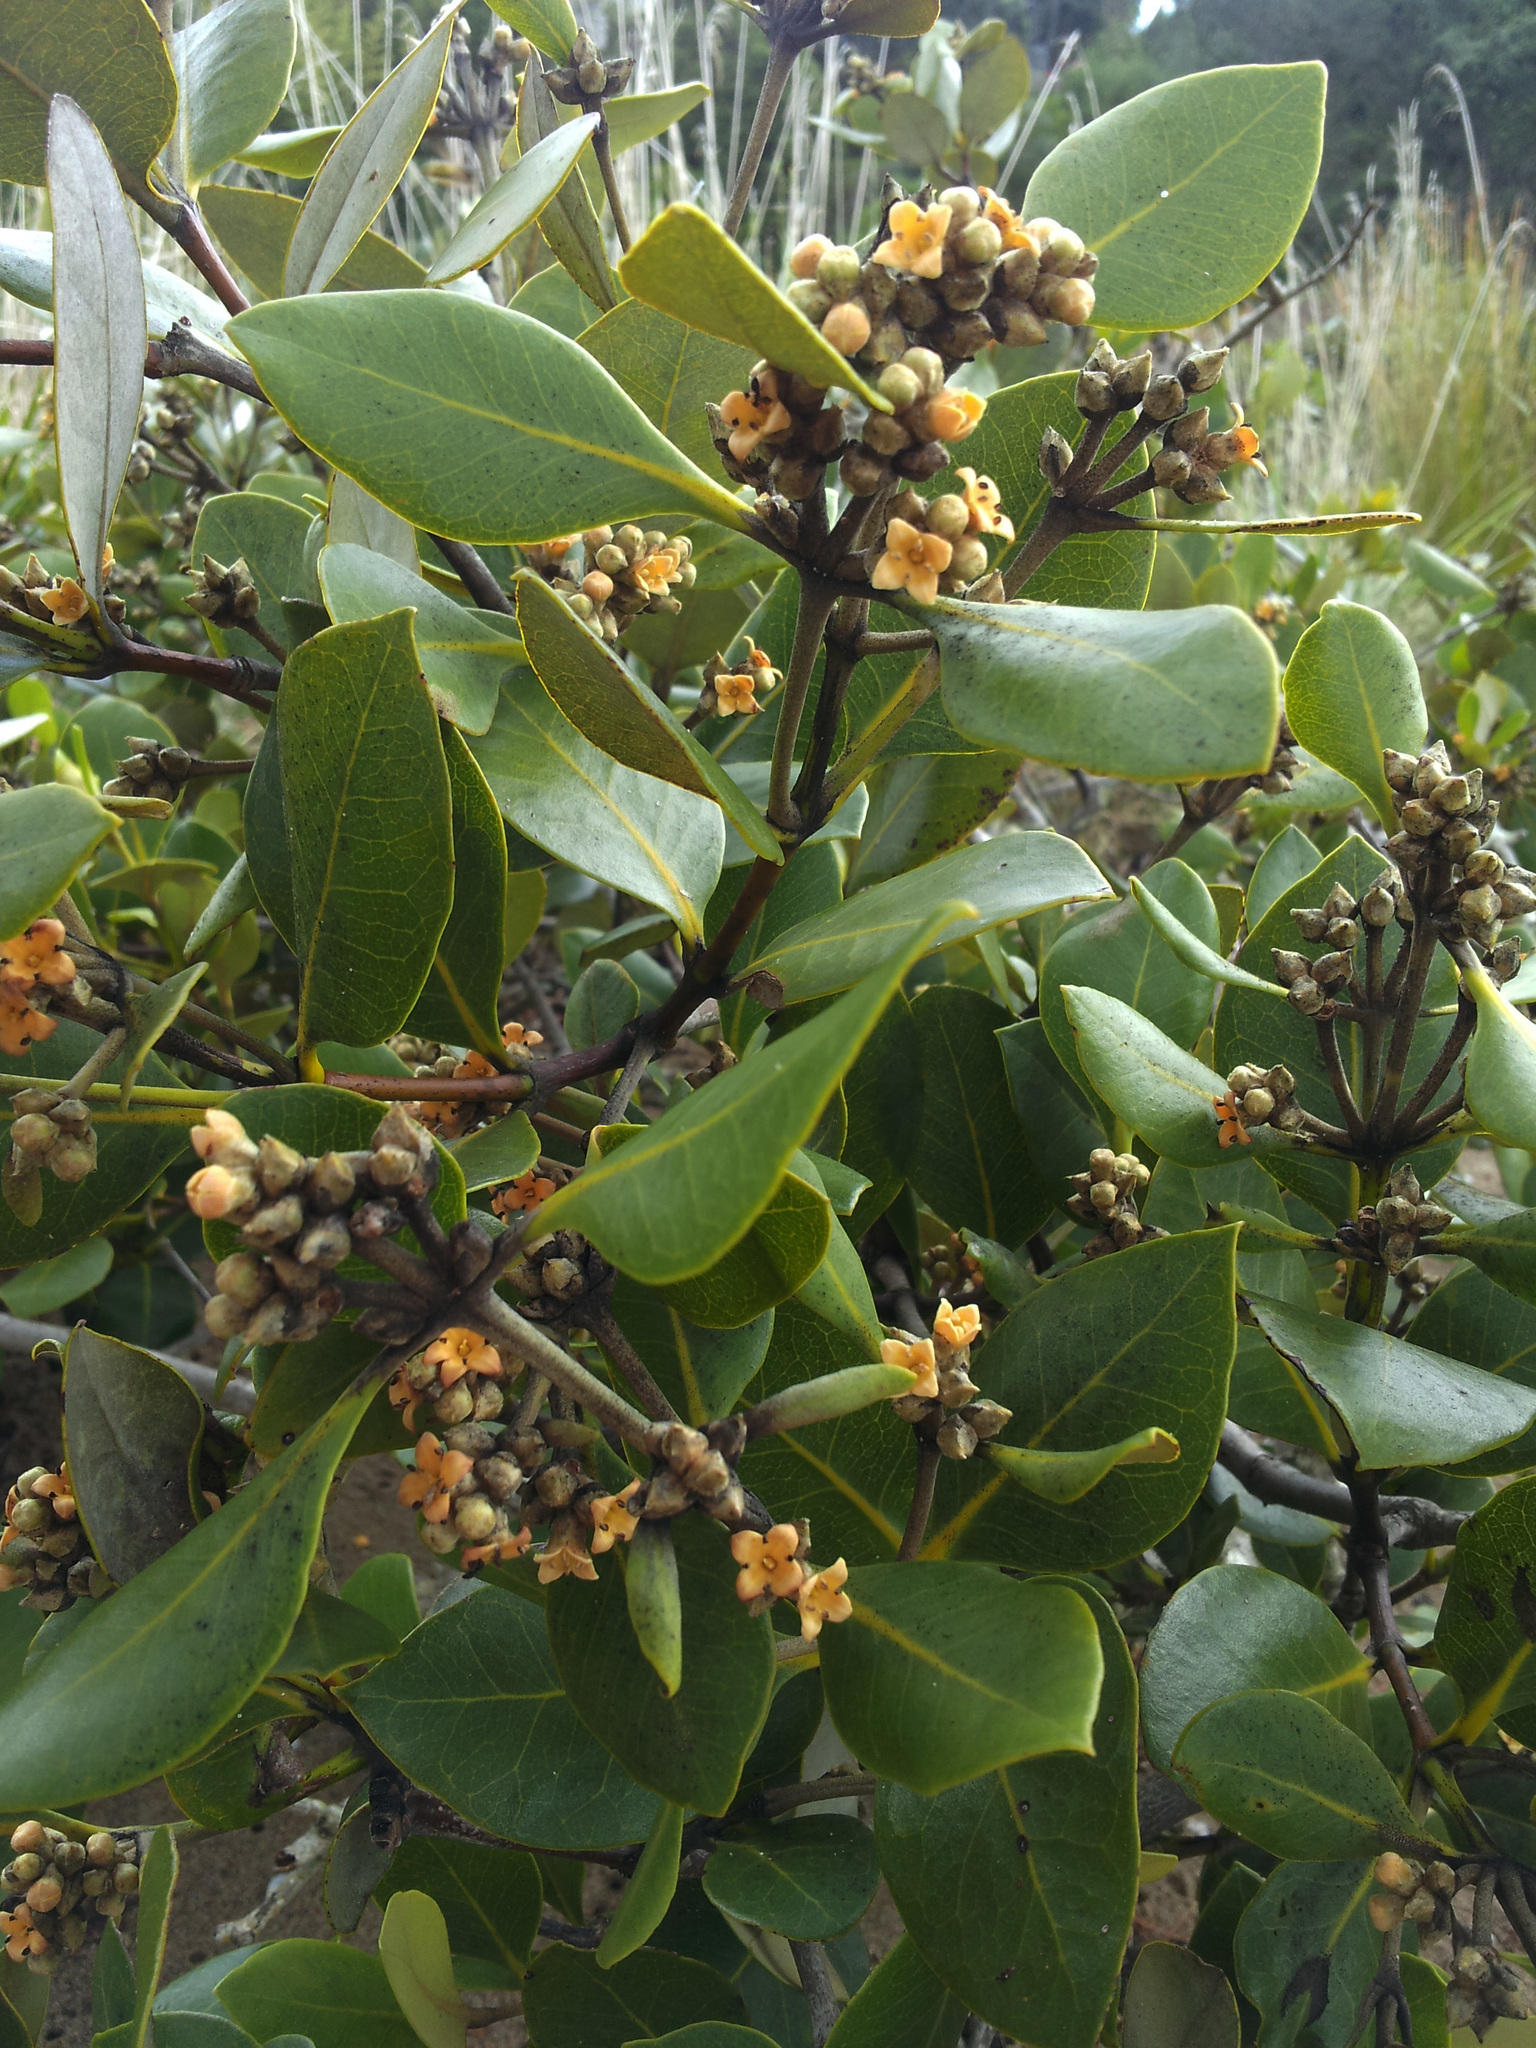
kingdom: Plantae
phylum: Tracheophyta
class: Magnoliopsida
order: Lamiales
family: Acanthaceae
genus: Avicennia
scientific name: Avicennia marina
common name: Gray mangrove
